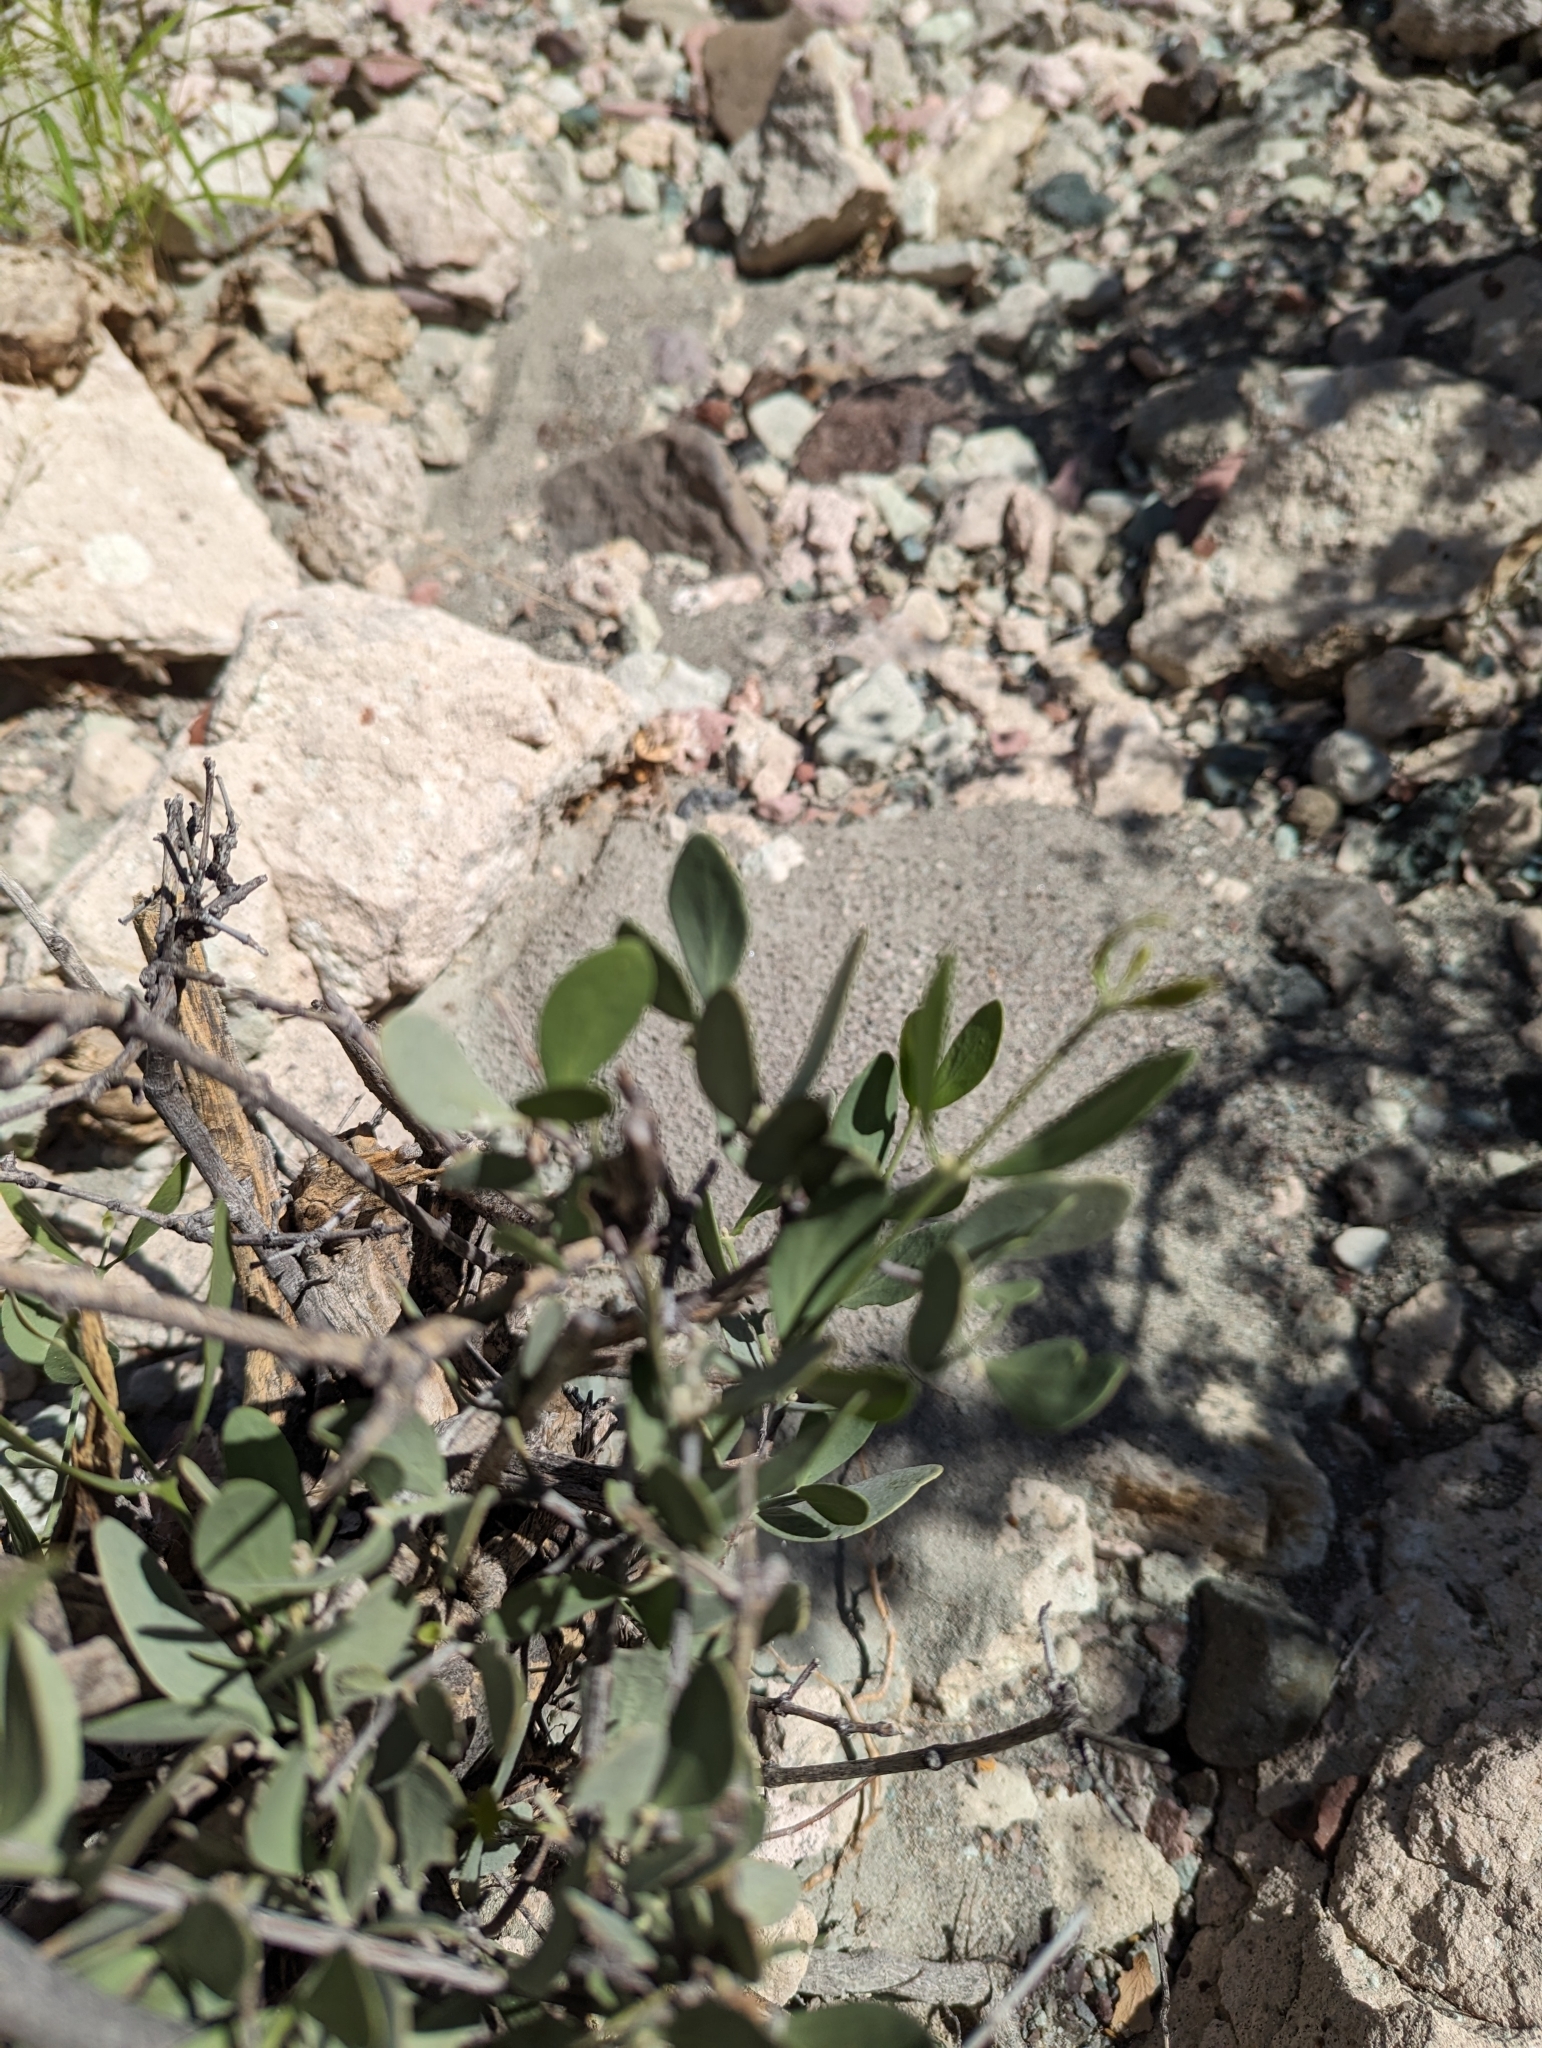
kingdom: Plantae
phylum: Tracheophyta
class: Magnoliopsida
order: Caryophyllales
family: Simmondsiaceae
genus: Simmondsia
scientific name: Simmondsia chinensis
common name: Jojoba
